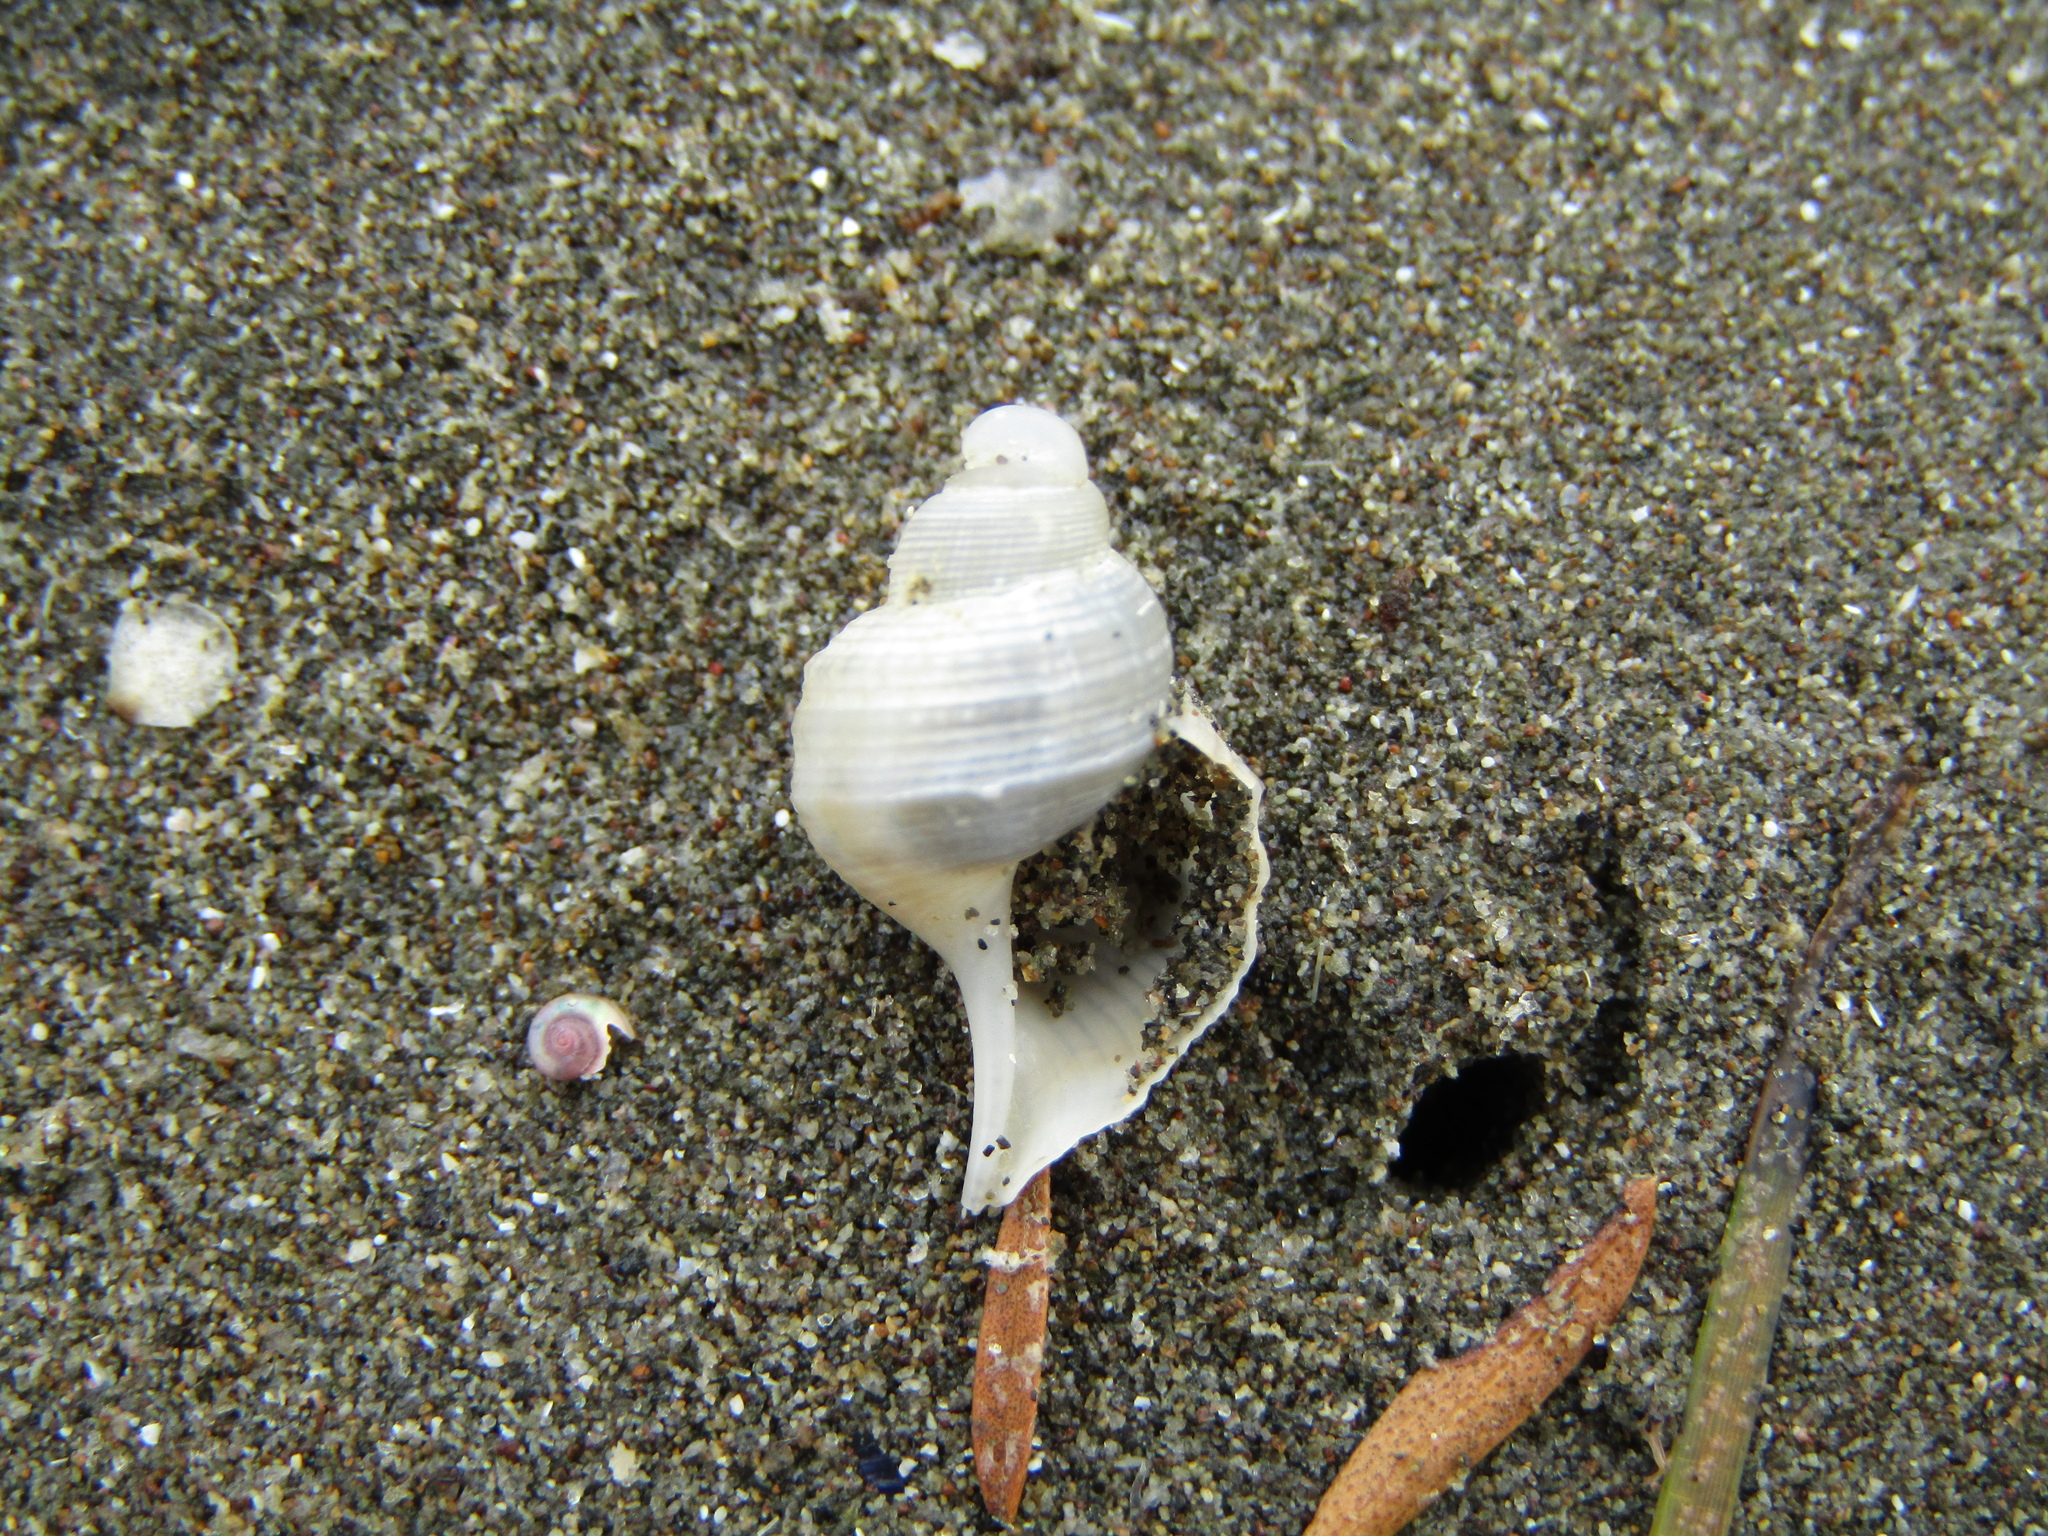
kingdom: Animalia
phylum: Mollusca
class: Gastropoda
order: Littorinimorpha
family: Struthiolariidae
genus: Pelicaria
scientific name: Pelicaria vermis
